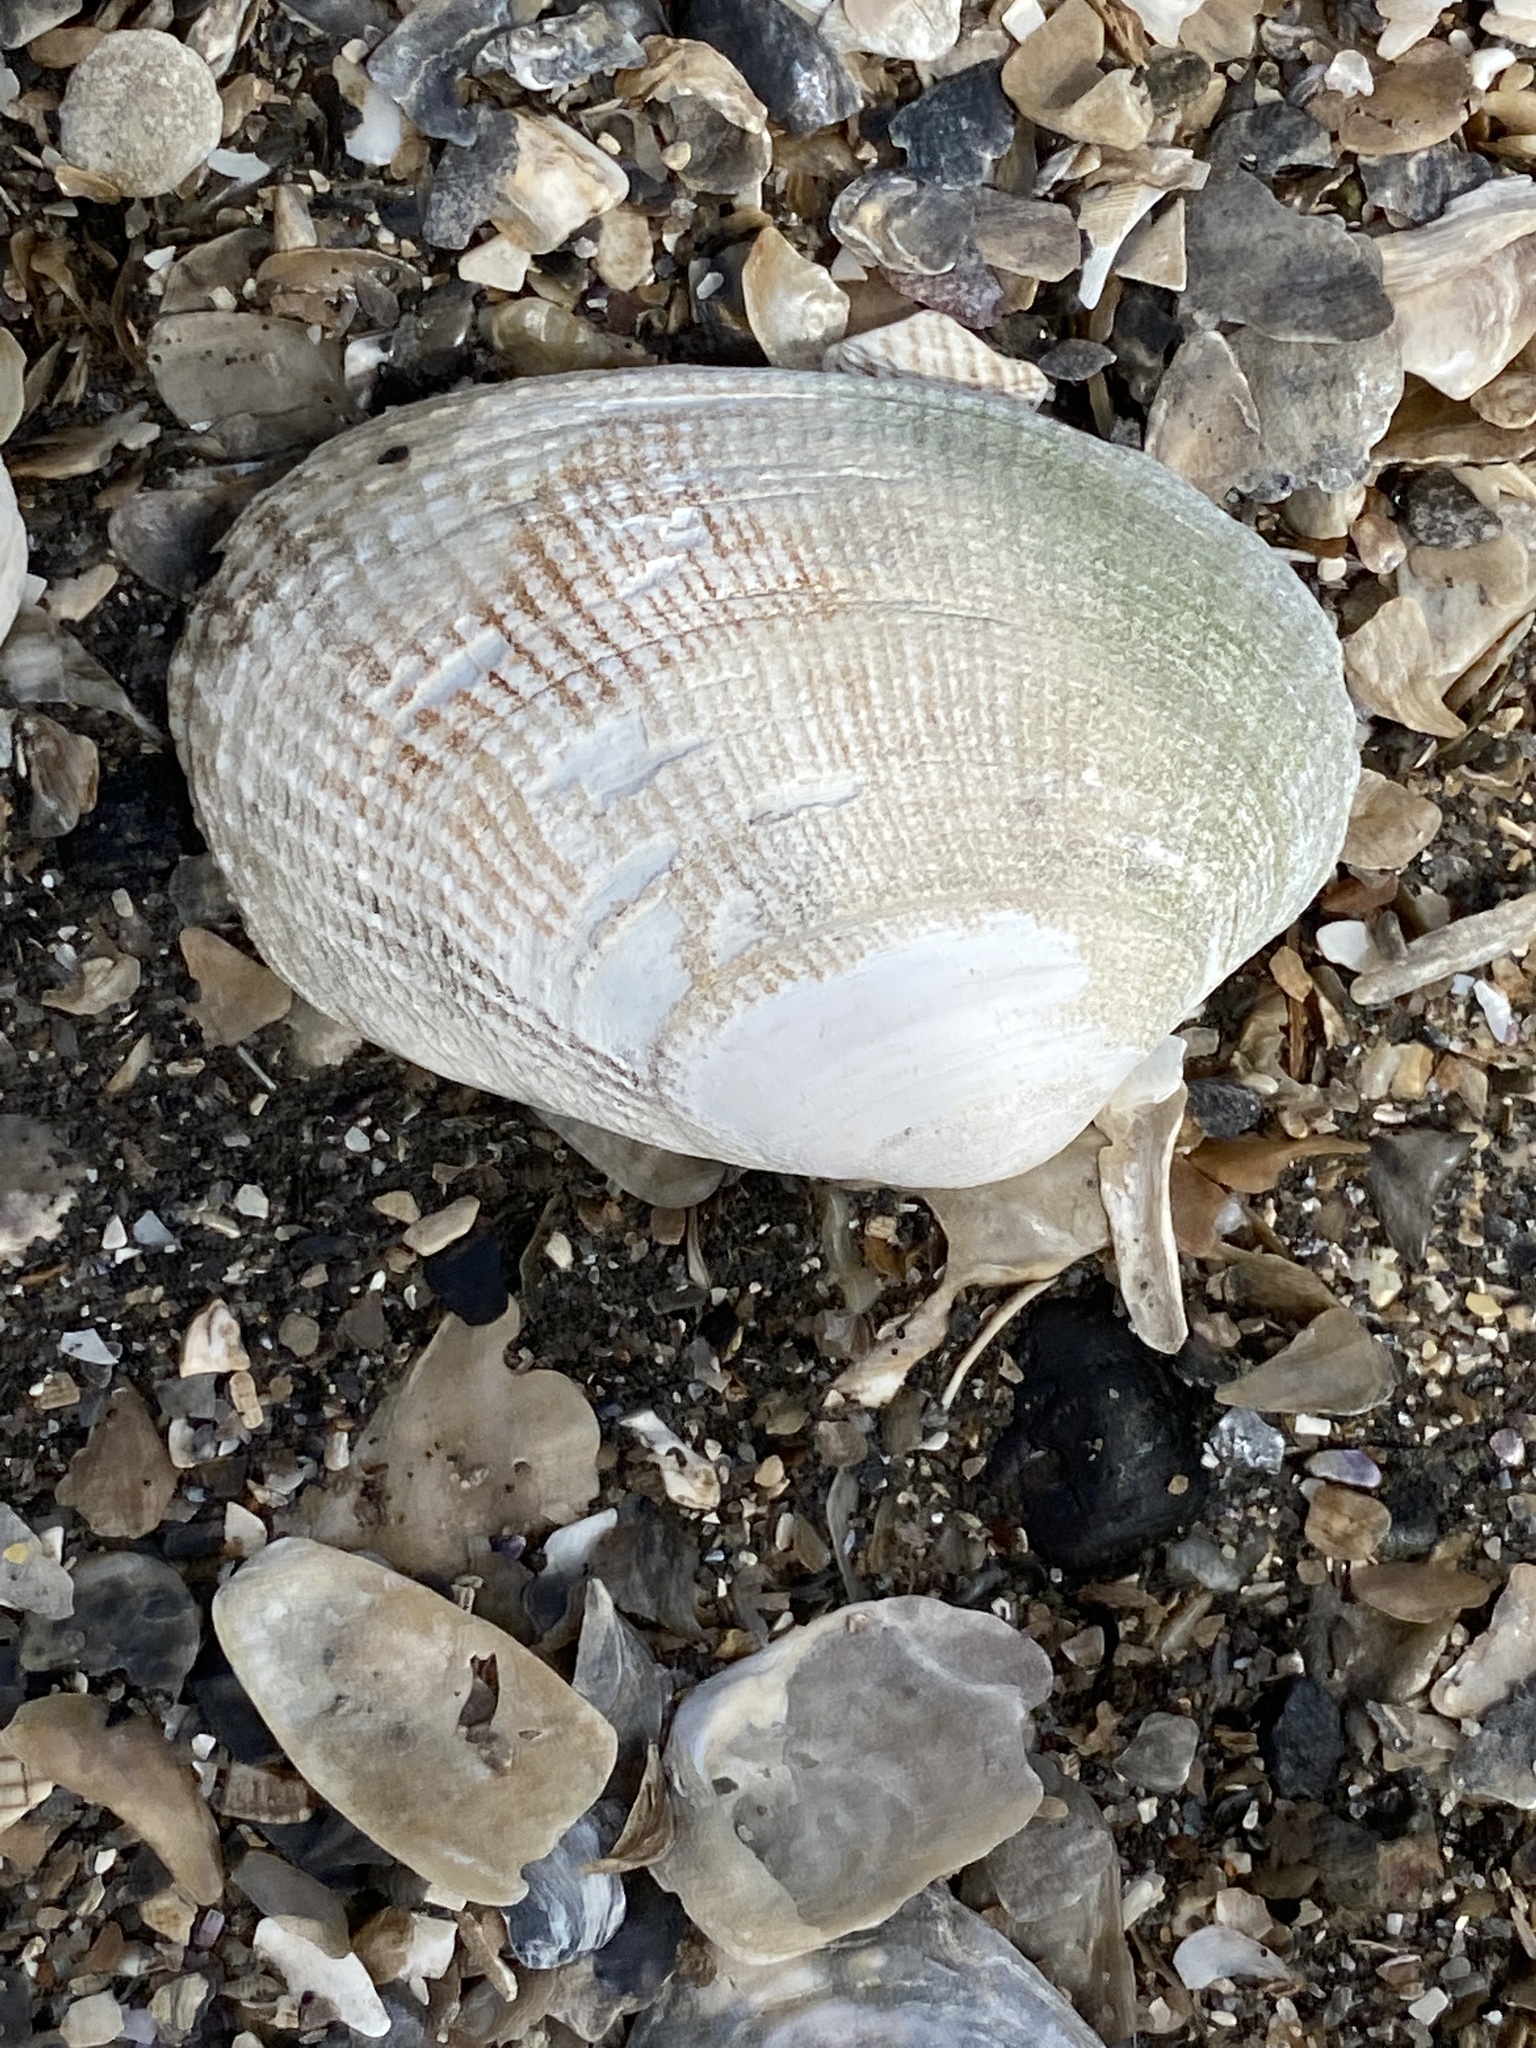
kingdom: Animalia
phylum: Mollusca
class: Bivalvia
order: Venerida
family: Veneridae
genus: Ruditapes
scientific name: Ruditapes philippinarum
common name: Manila clam
